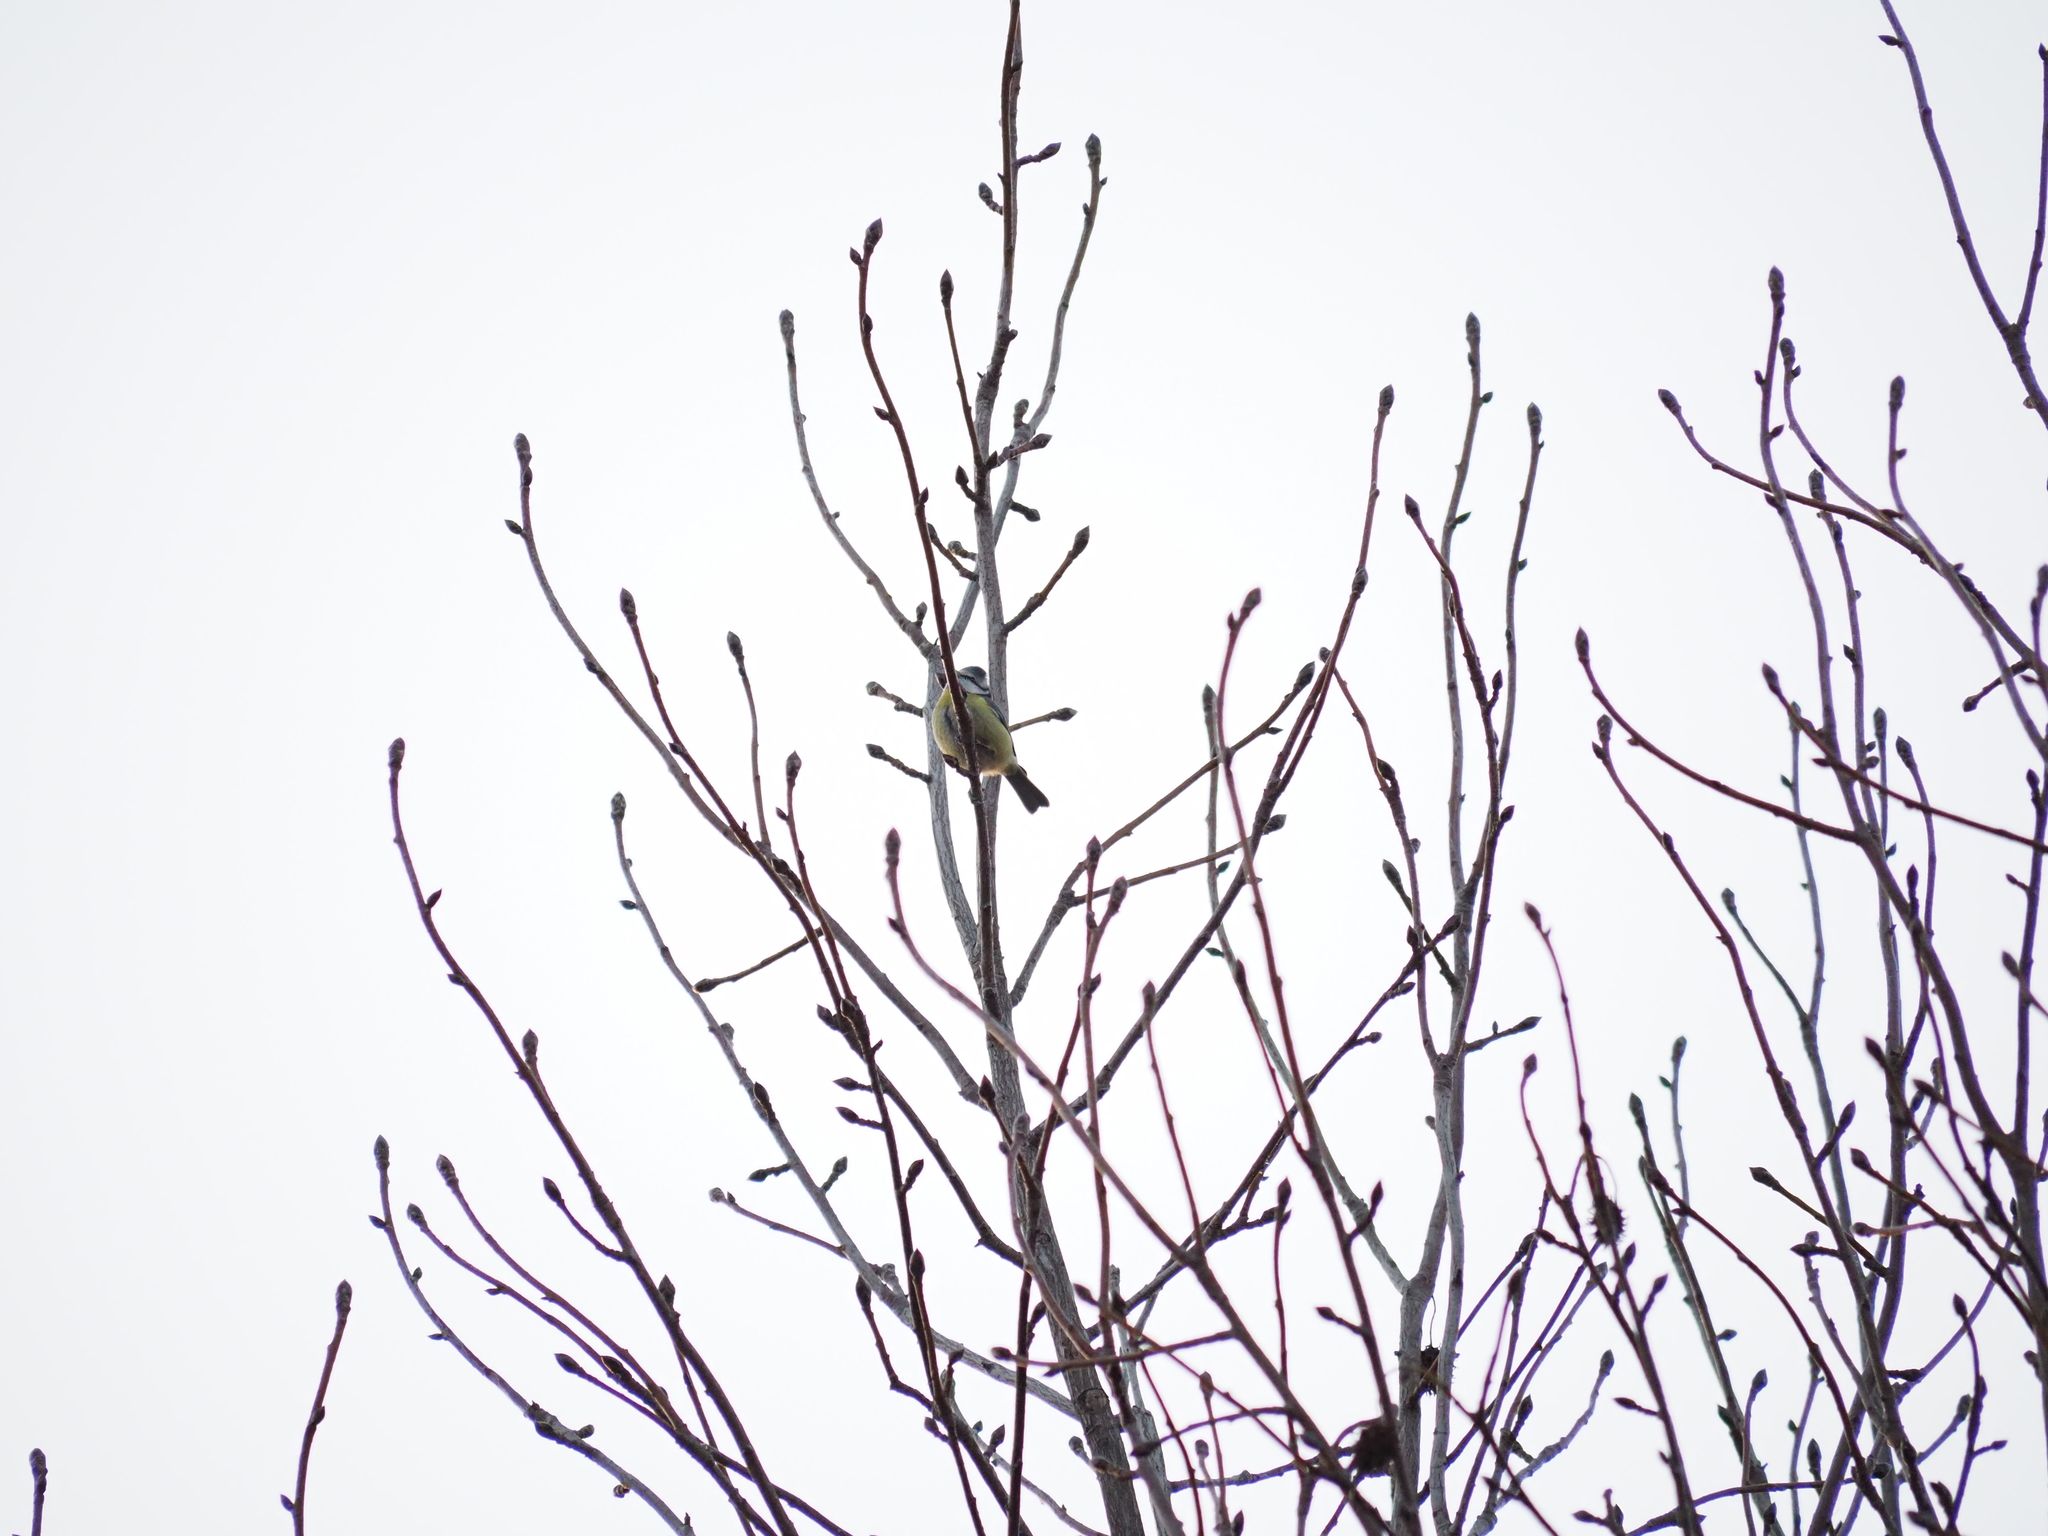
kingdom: Animalia
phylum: Chordata
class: Aves
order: Passeriformes
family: Paridae
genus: Cyanistes
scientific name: Cyanistes caeruleus
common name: Eurasian blue tit
